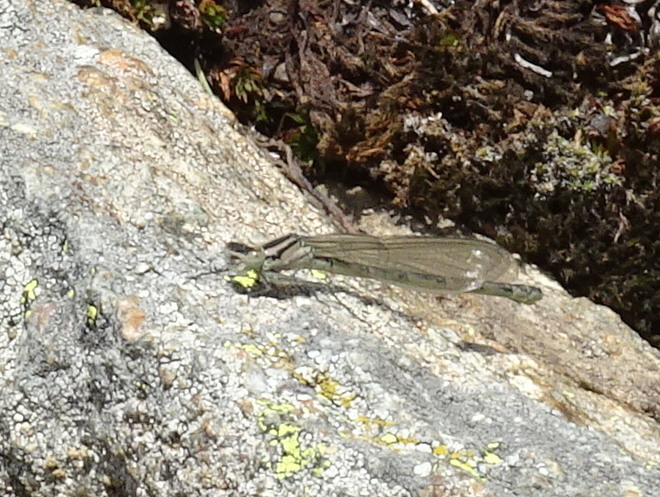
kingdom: Animalia
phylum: Arthropoda
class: Insecta
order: Odonata
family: Coenagrionidae
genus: Enallagma
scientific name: Enallagma cyathigerum
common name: Common blue damselfly
